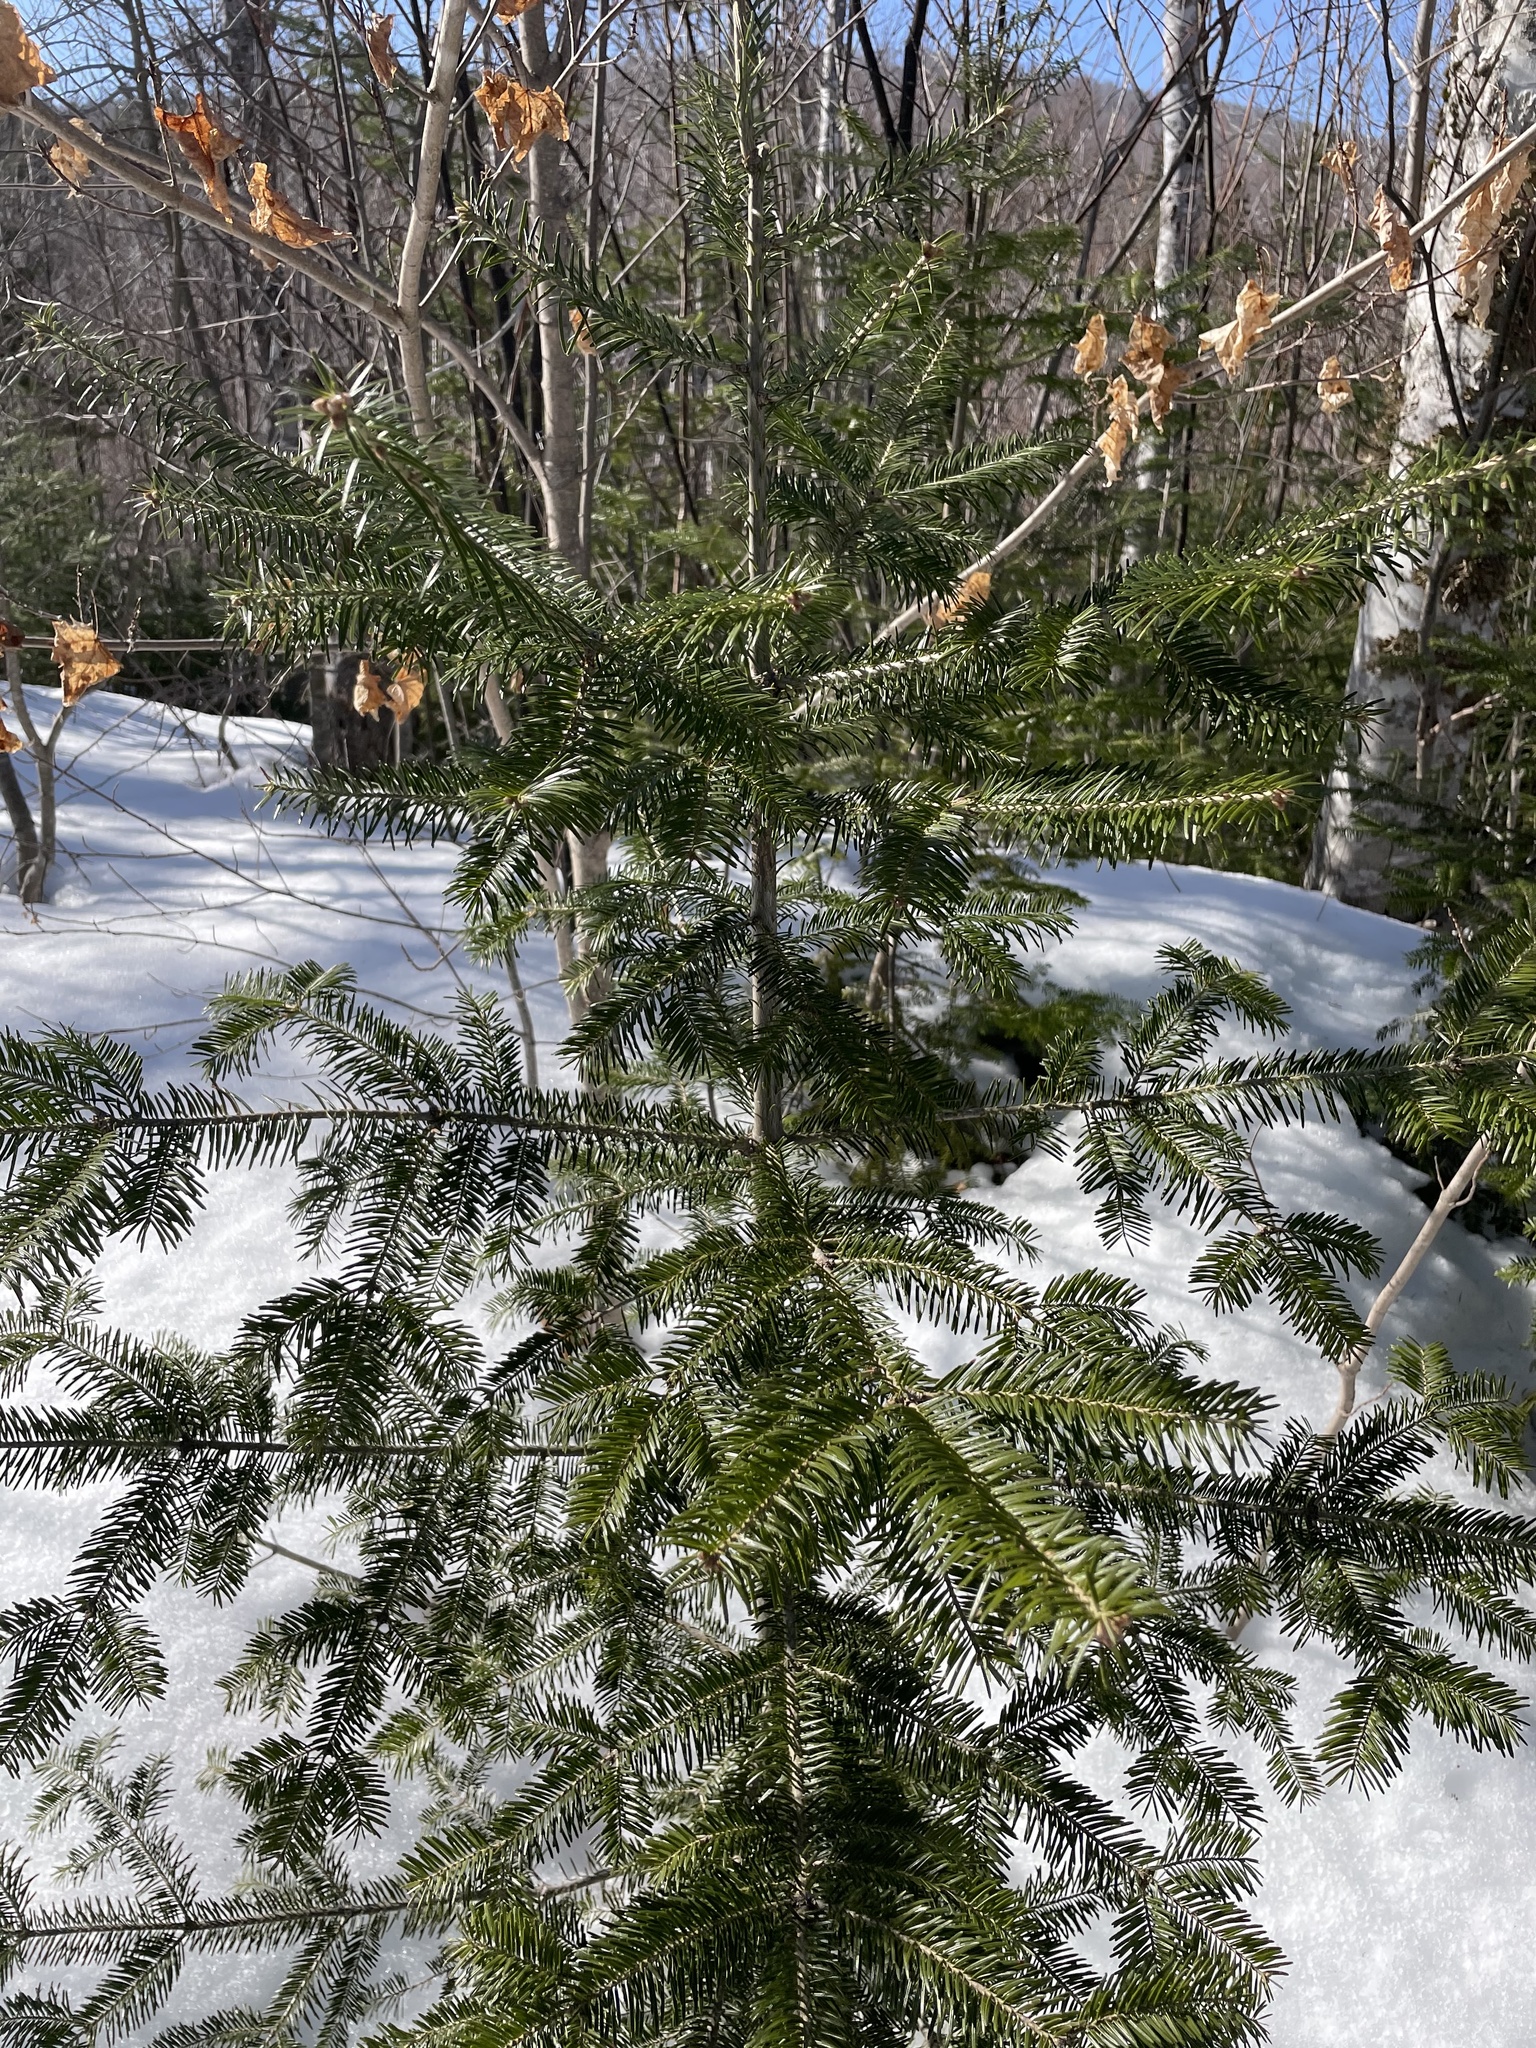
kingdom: Plantae
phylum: Tracheophyta
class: Pinopsida
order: Pinales
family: Pinaceae
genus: Abies
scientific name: Abies balsamea
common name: Balsam fir
